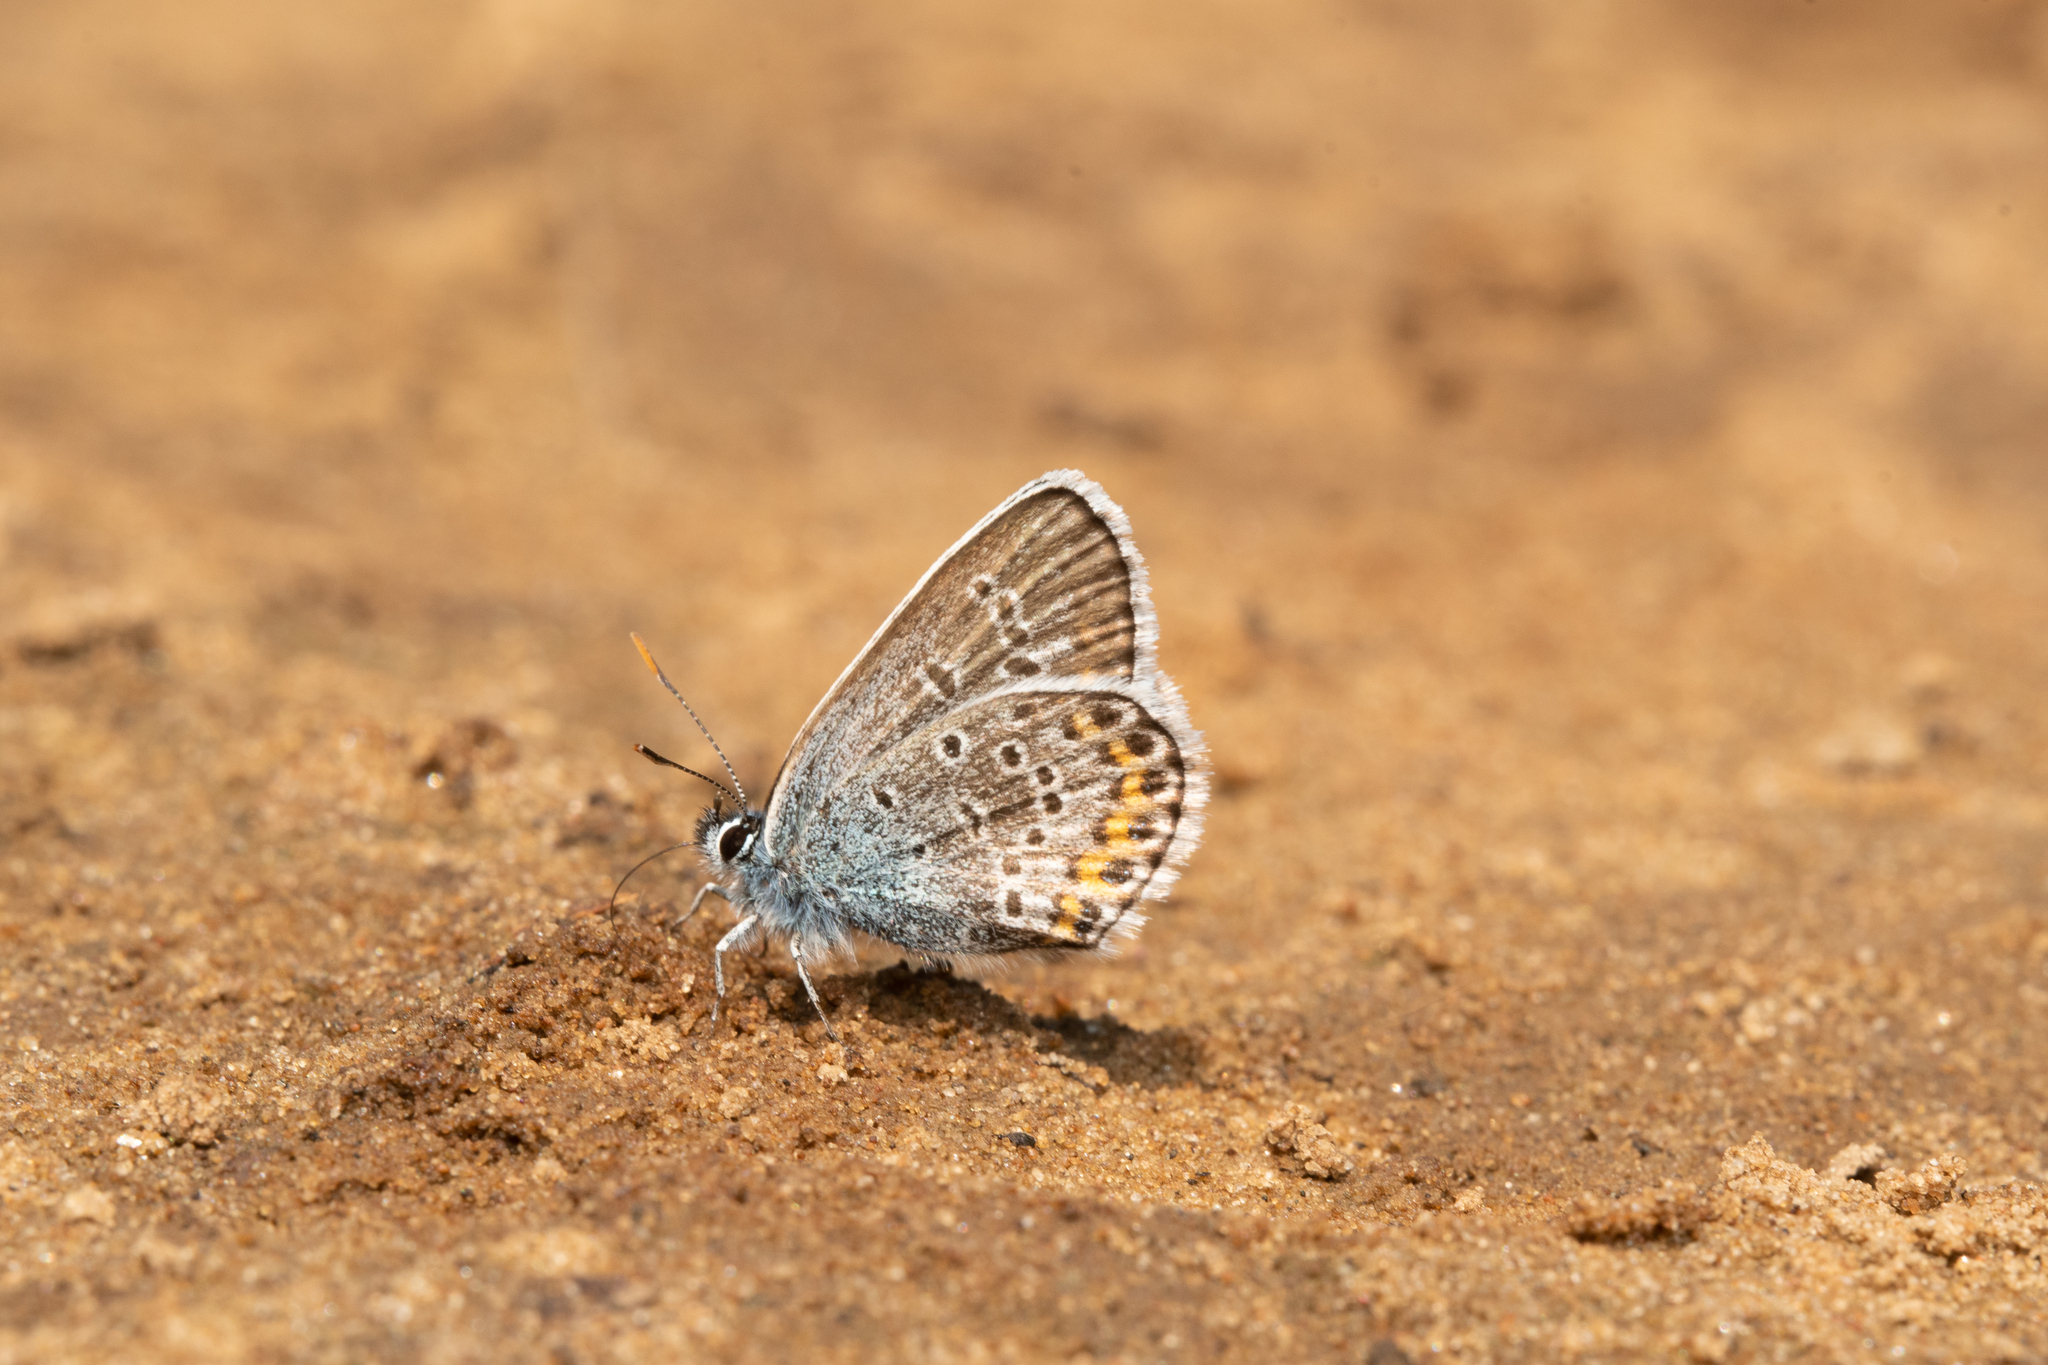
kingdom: Animalia
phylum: Arthropoda
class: Insecta
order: Lepidoptera
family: Lycaenidae
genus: Plebejus
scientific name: Plebejus argus
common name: Silver-studded blue
